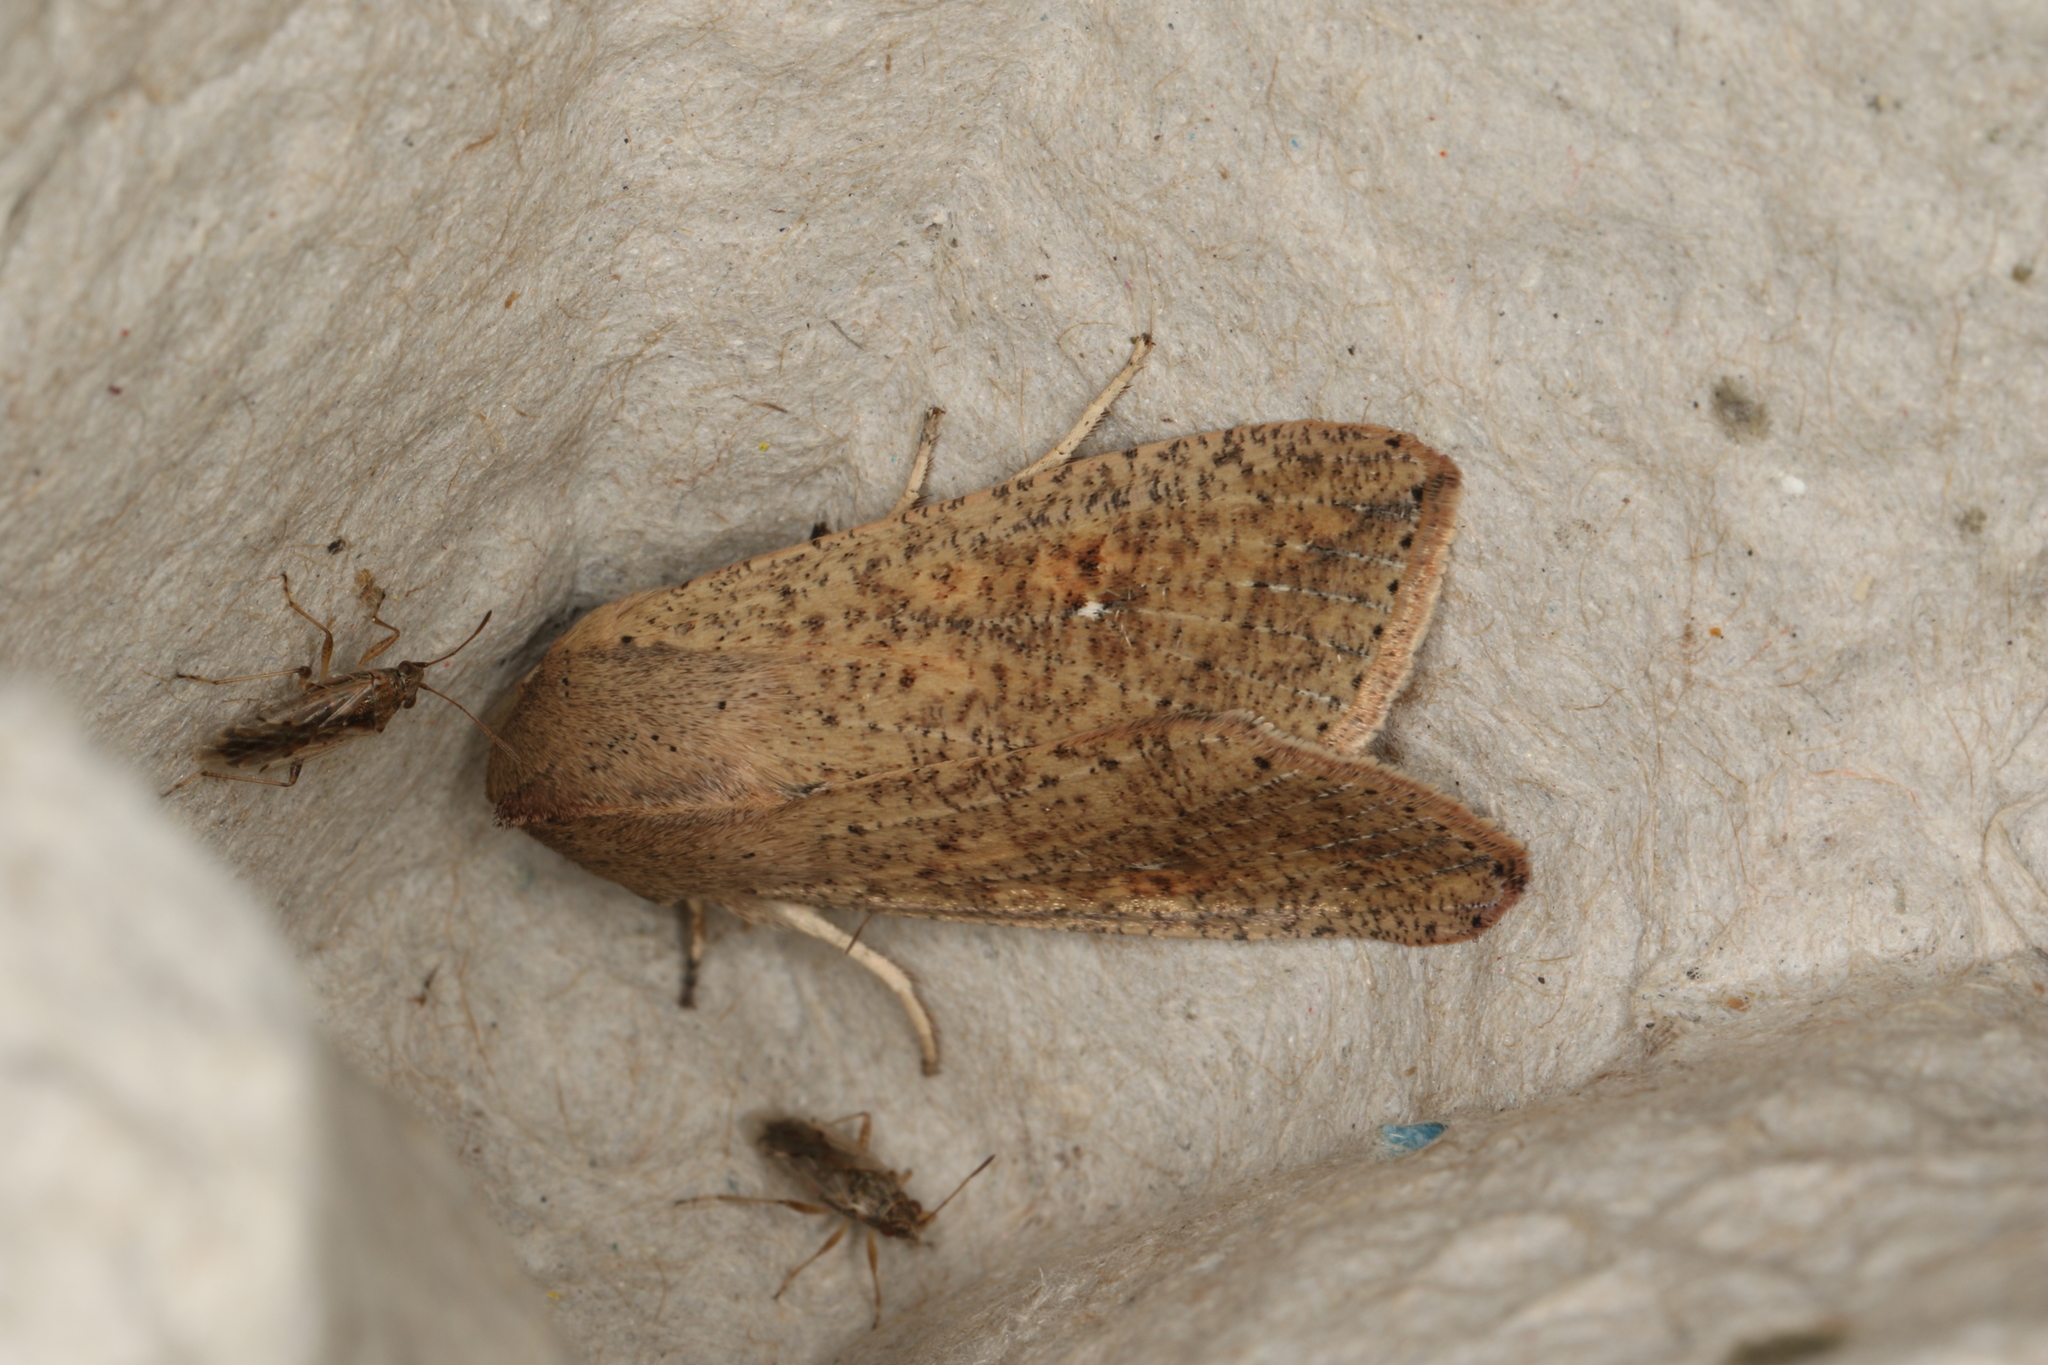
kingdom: Animalia
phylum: Arthropoda
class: Insecta
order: Lepidoptera
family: Noctuidae
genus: Mythimna
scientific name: Mythimna convecta
